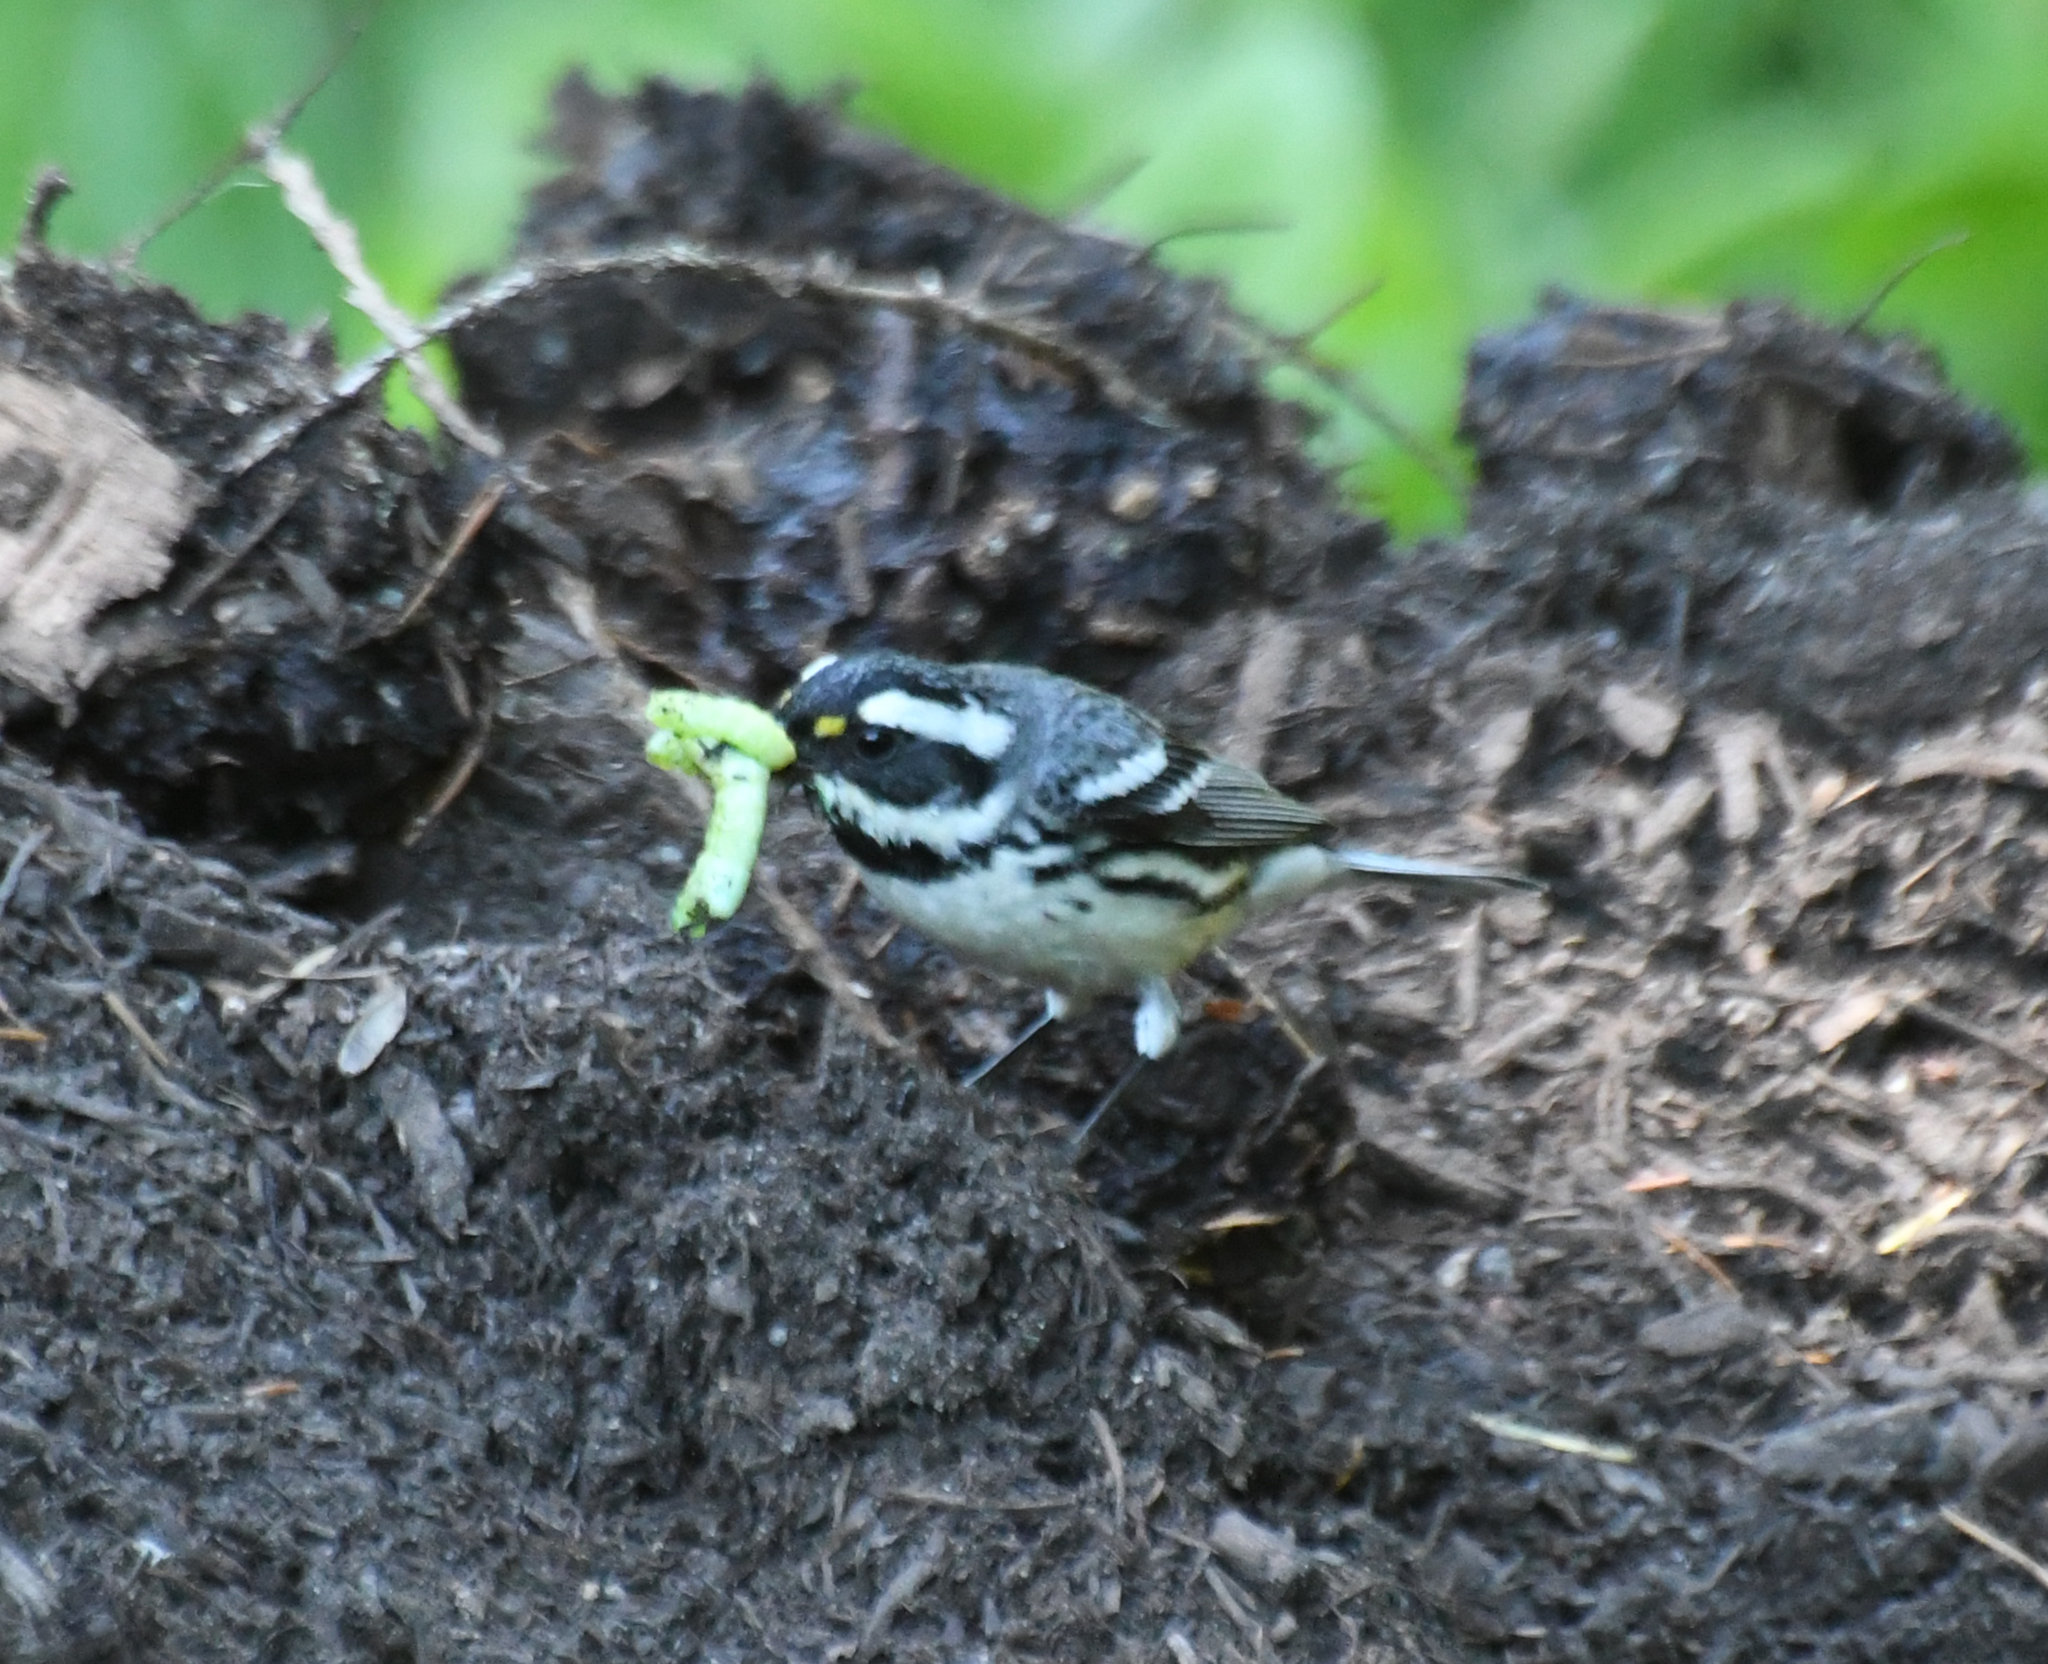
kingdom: Animalia
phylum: Chordata
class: Aves
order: Passeriformes
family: Parulidae
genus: Setophaga
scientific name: Setophaga nigrescens
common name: Black-throated gray warbler
